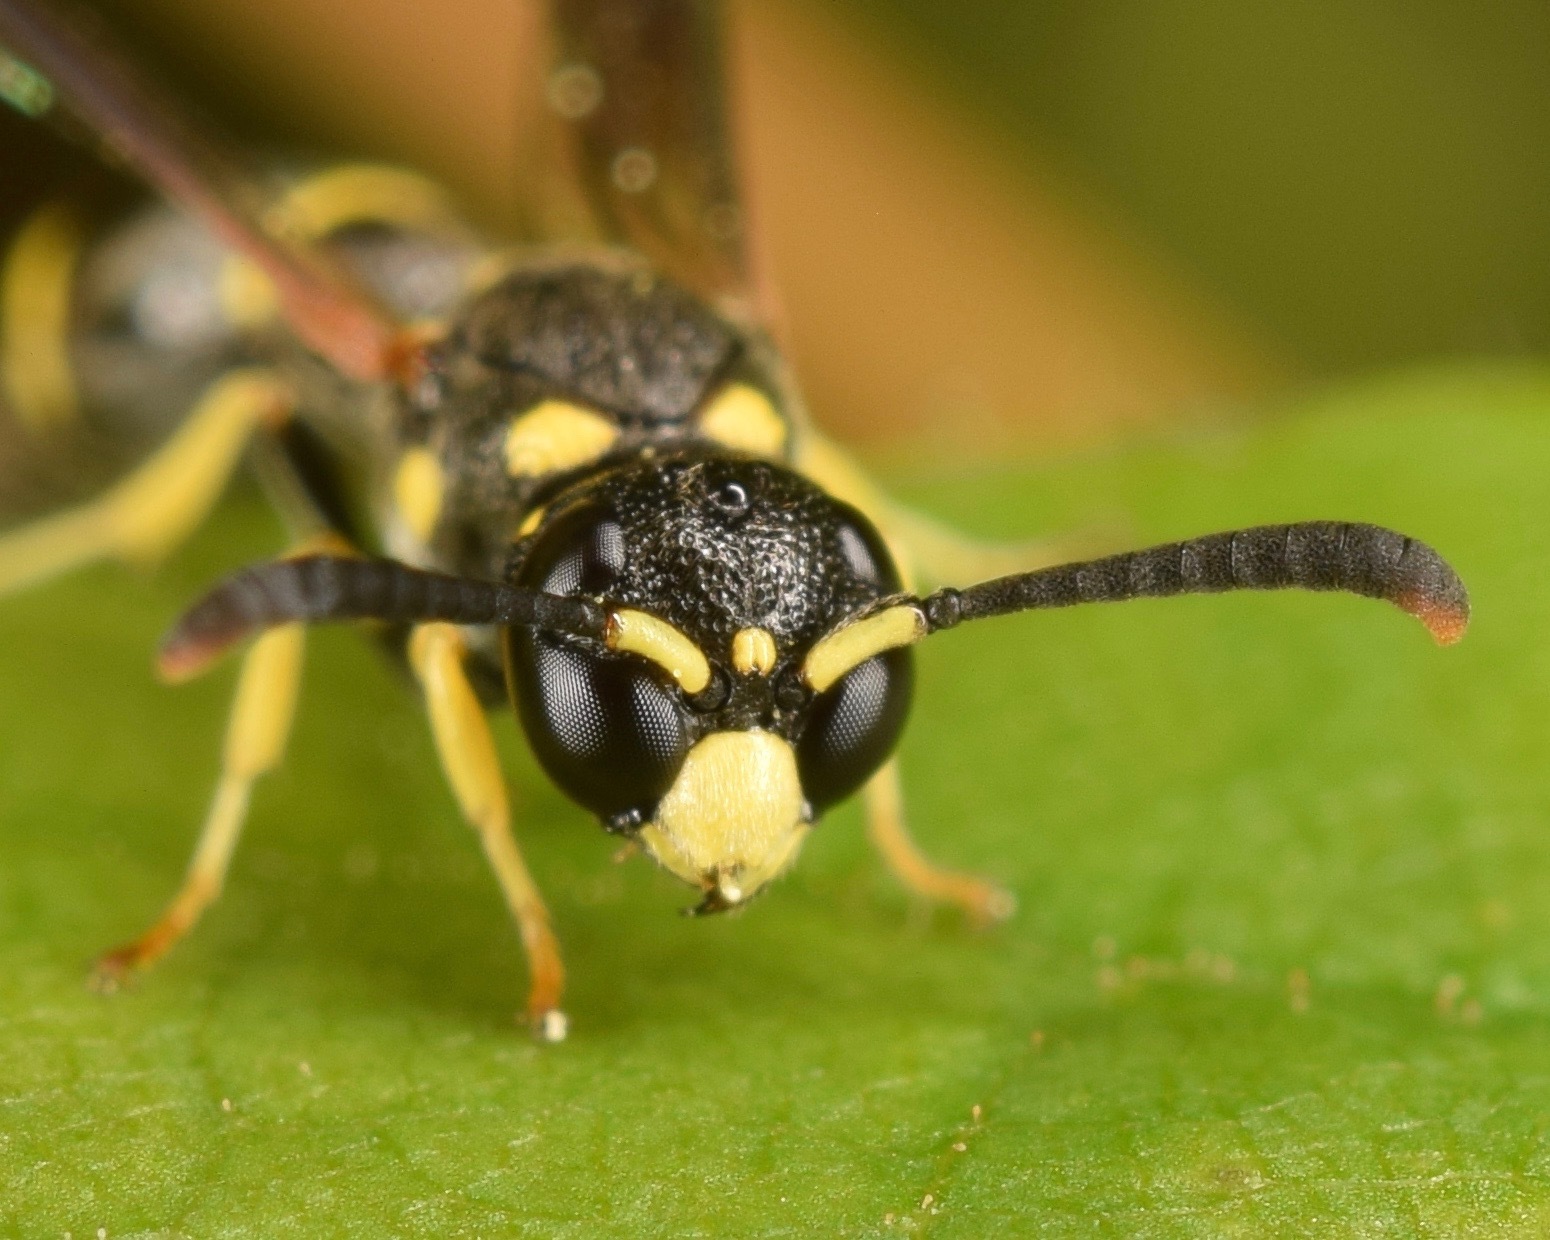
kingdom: Animalia
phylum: Arthropoda
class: Insecta
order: Hymenoptera
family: Eumenidae
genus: Symmorphus
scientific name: Symmorphus
